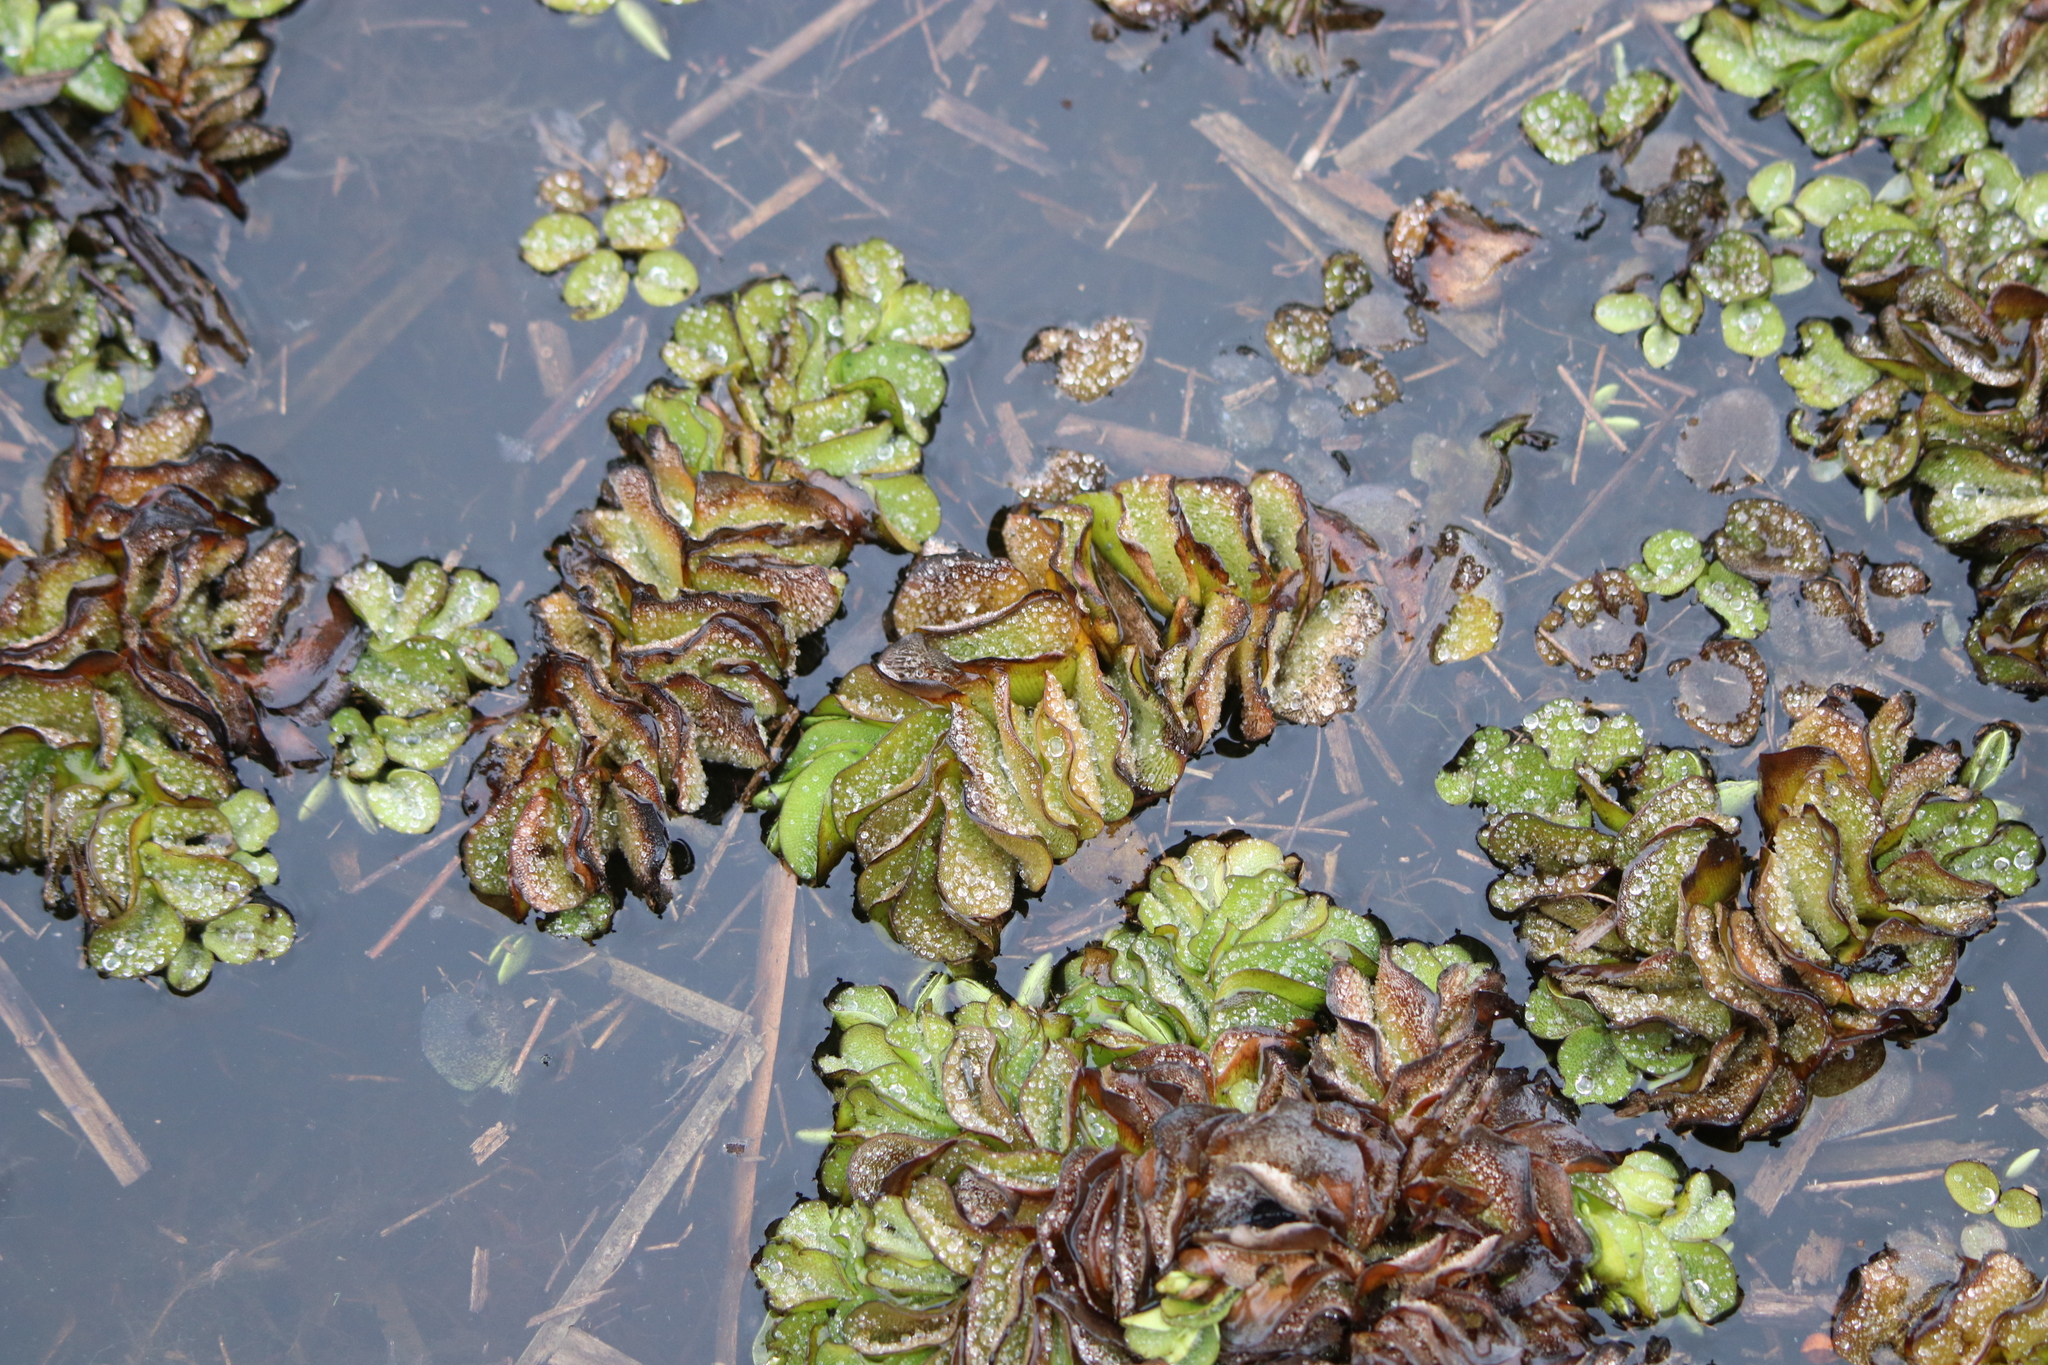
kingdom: Plantae
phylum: Tracheophyta
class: Polypodiopsida
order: Salviniales
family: Salviniaceae
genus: Salvinia
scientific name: Salvinia molesta
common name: Kariba weed
